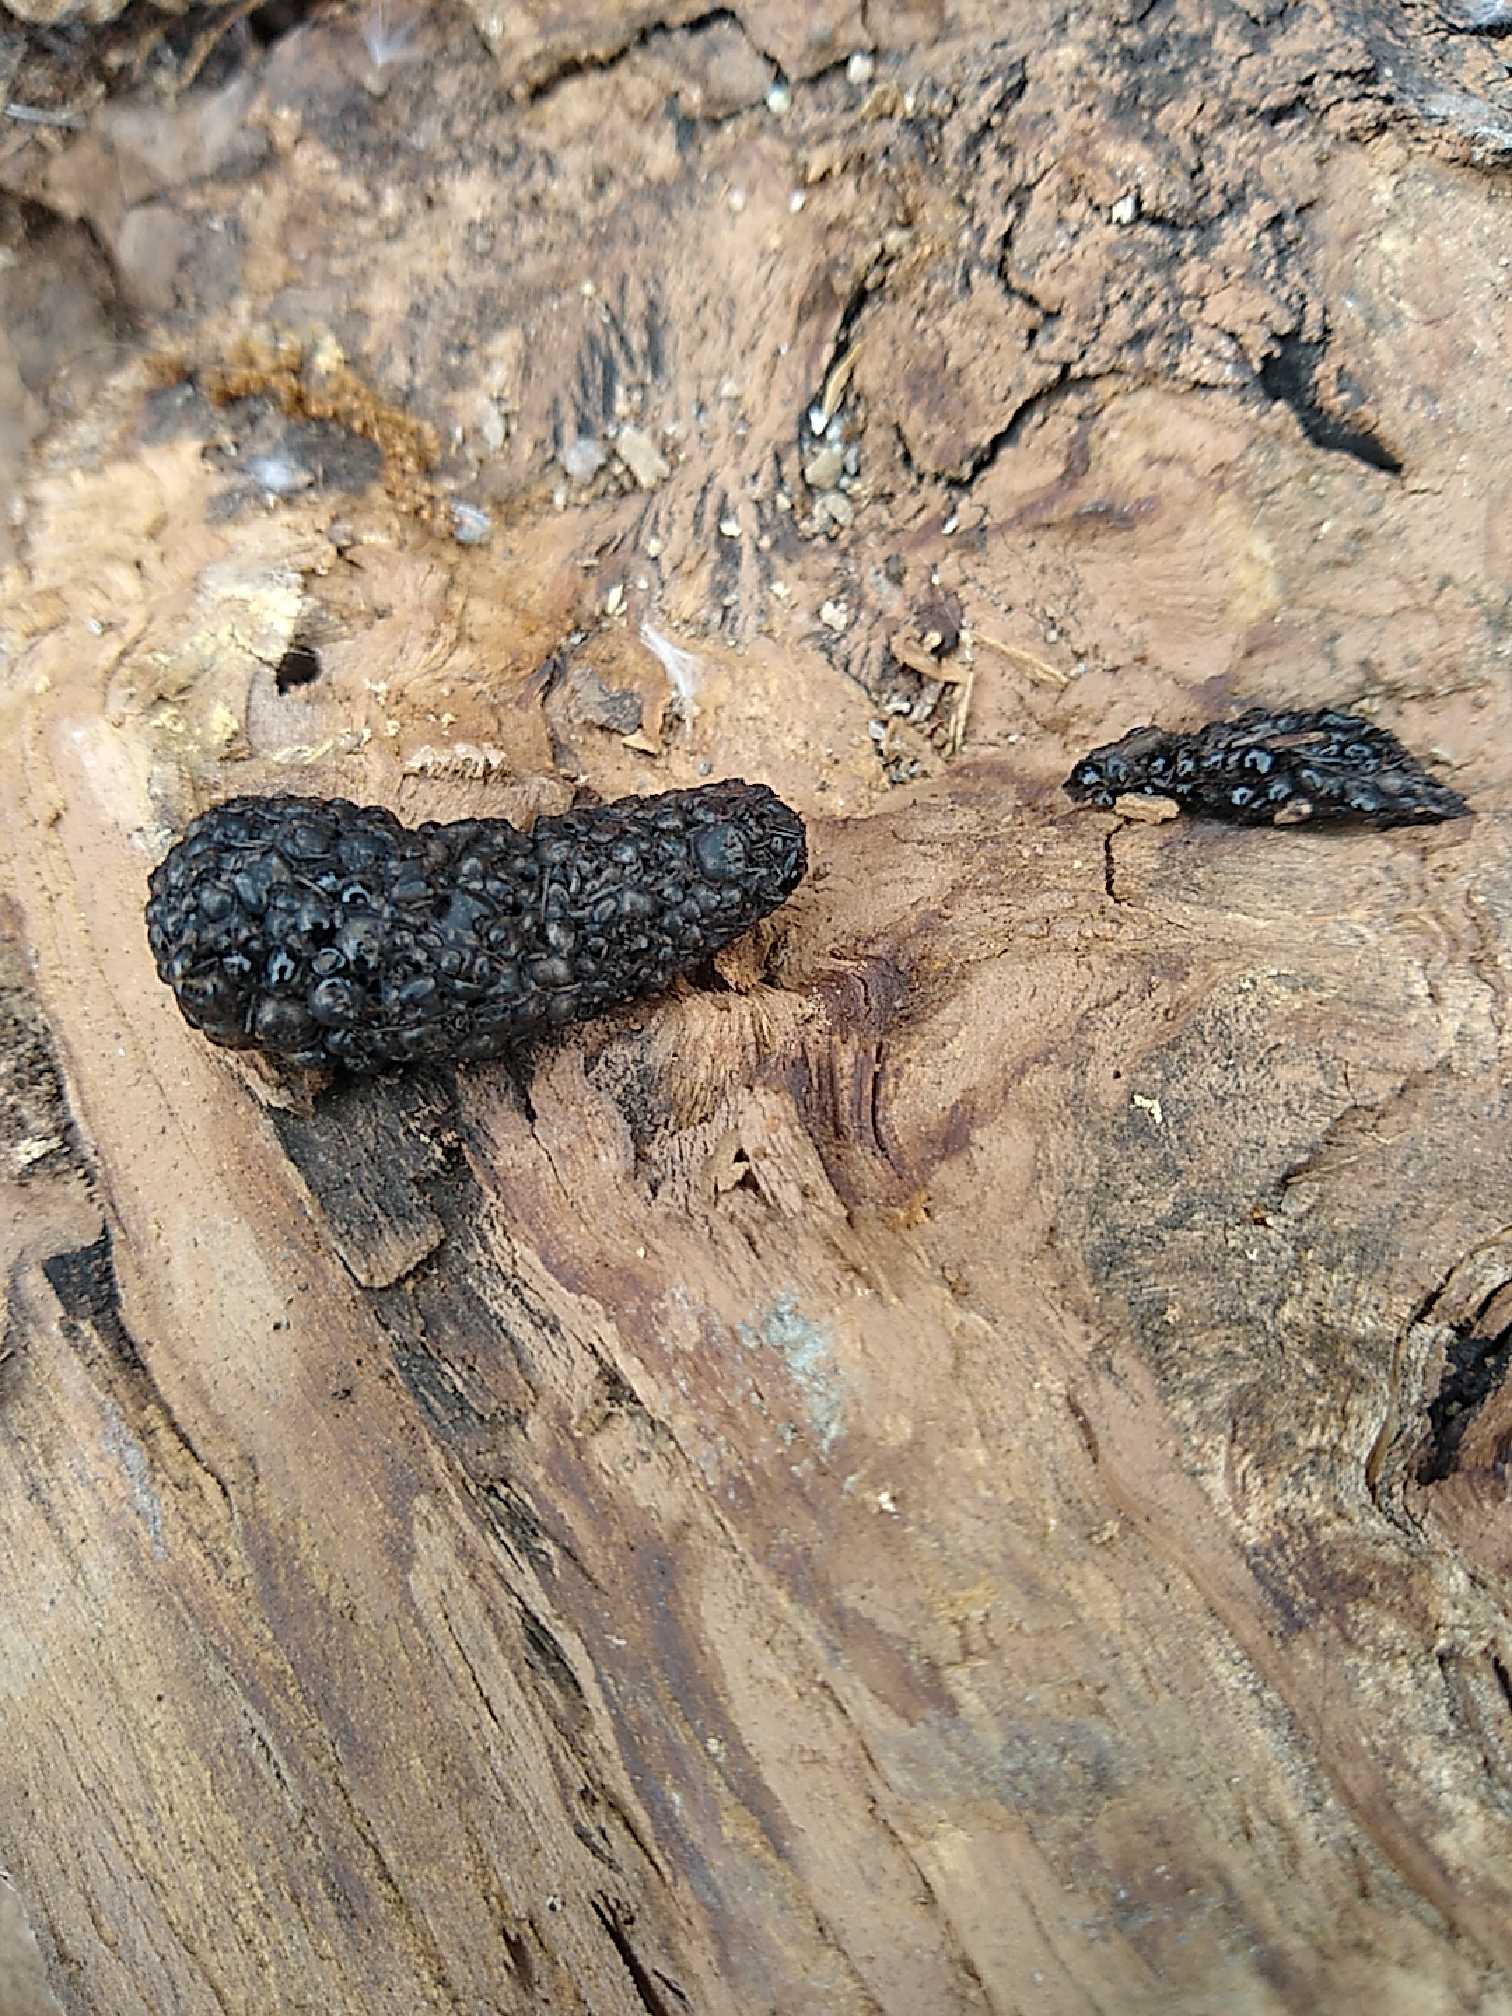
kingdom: Animalia
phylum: Chordata
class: Mammalia
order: Erinaceomorpha
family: Erinaceidae
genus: Erinaceus
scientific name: Erinaceus europaeus
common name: West european hedgehog
